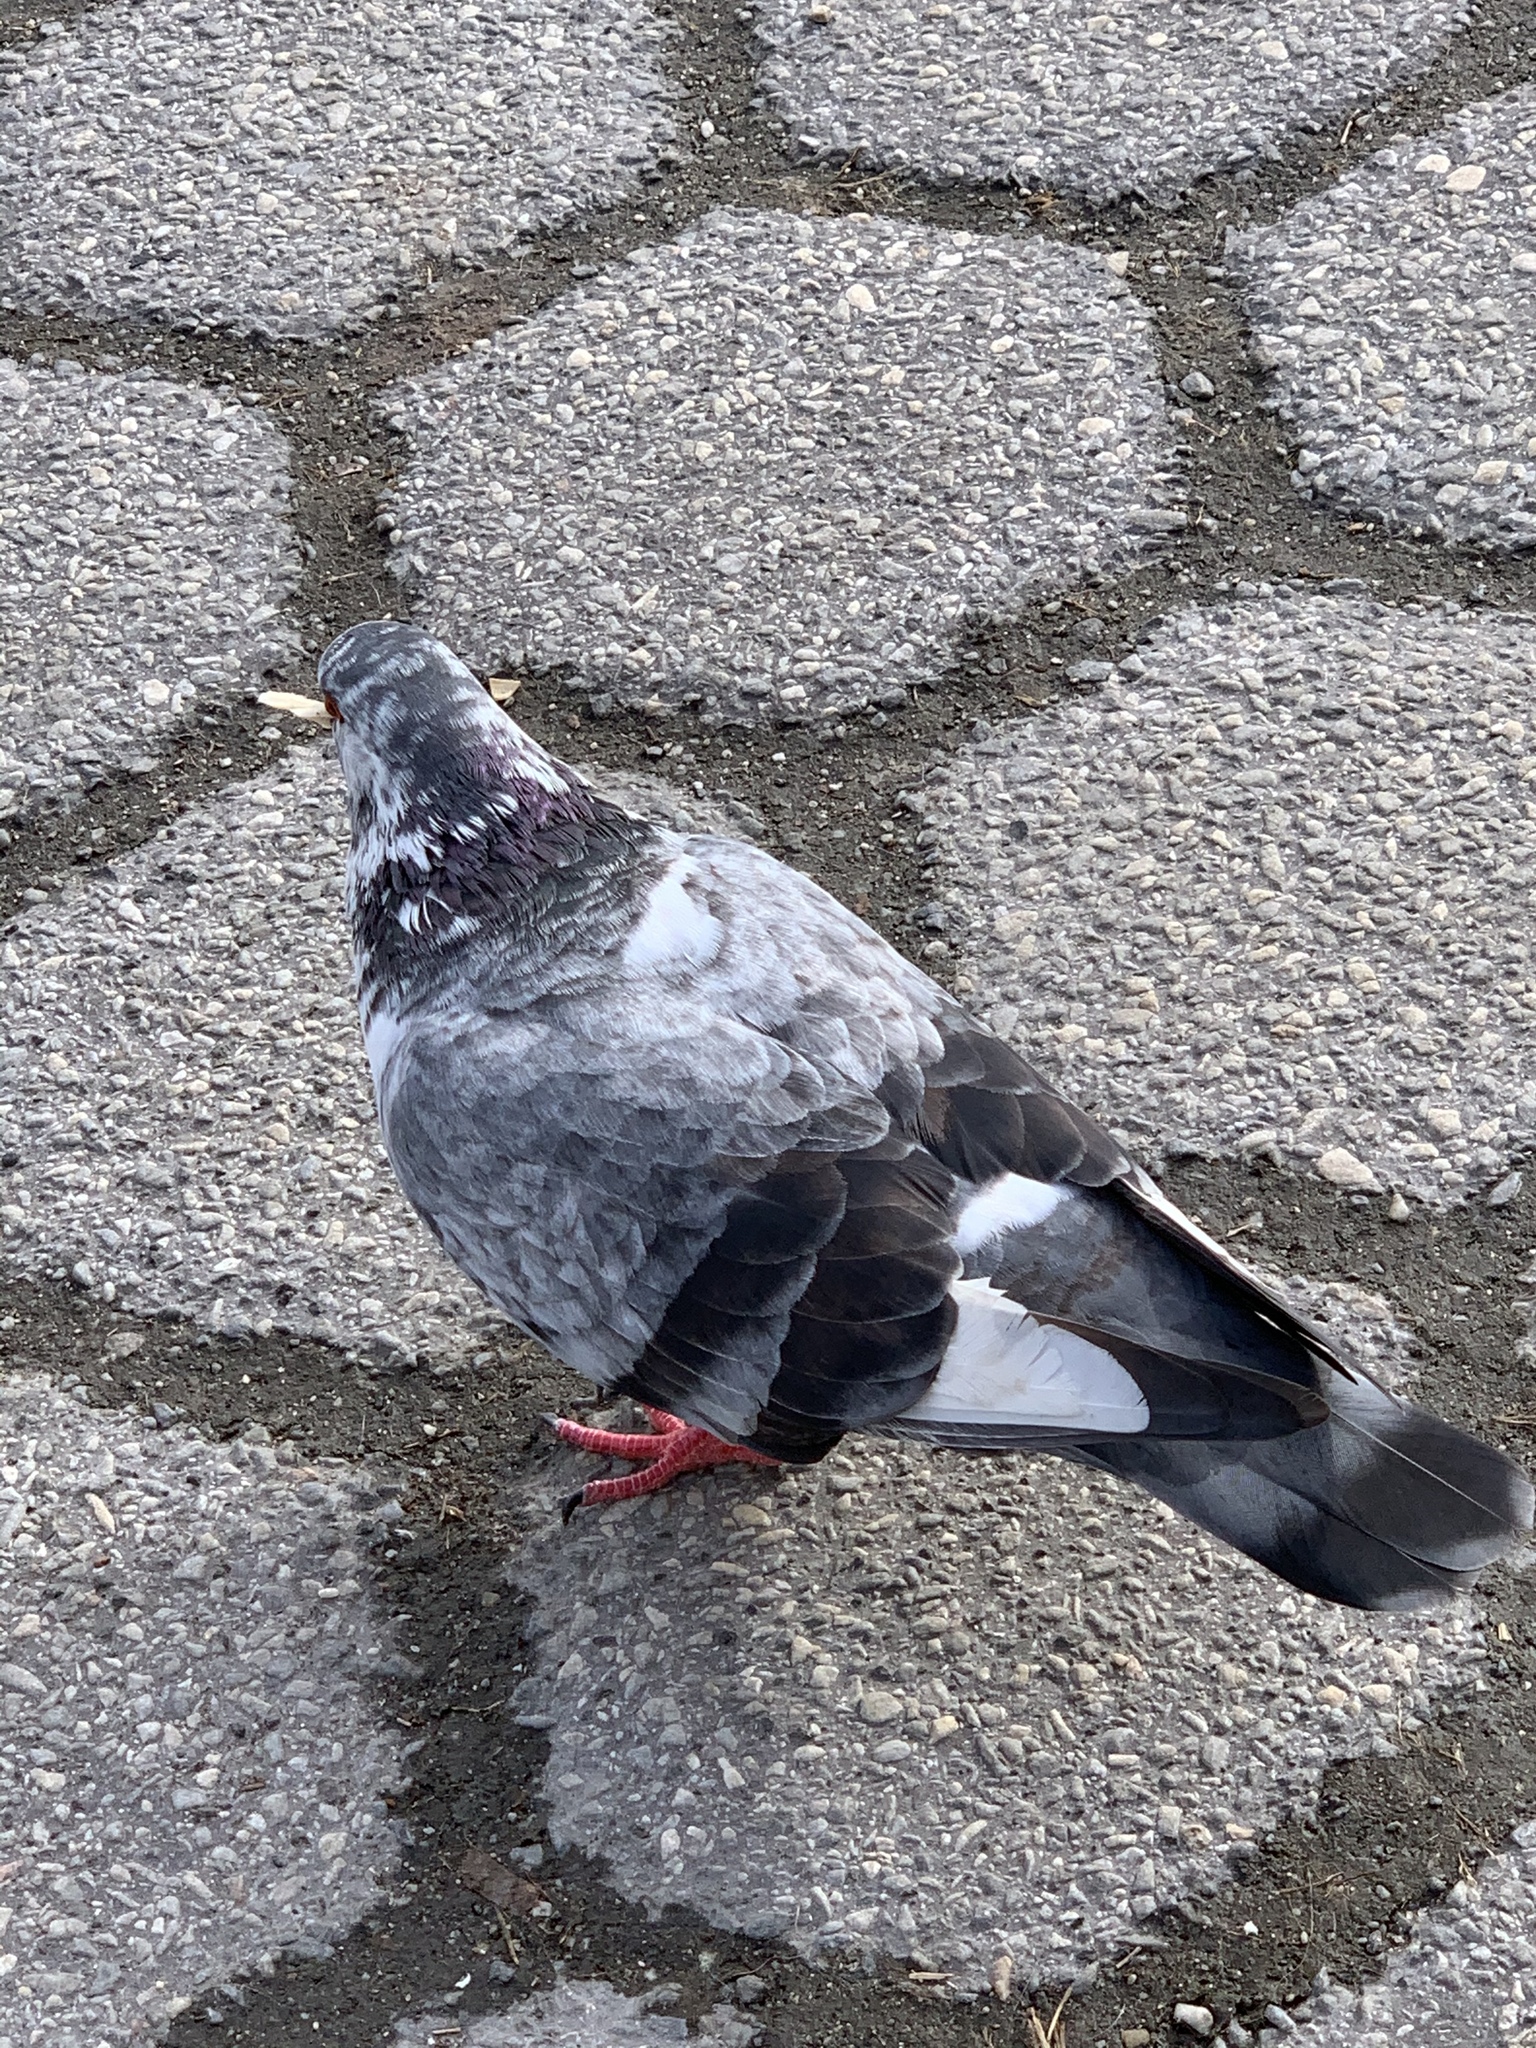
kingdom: Animalia
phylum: Chordata
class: Aves
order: Columbiformes
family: Columbidae
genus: Columba
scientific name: Columba livia
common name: Rock pigeon
